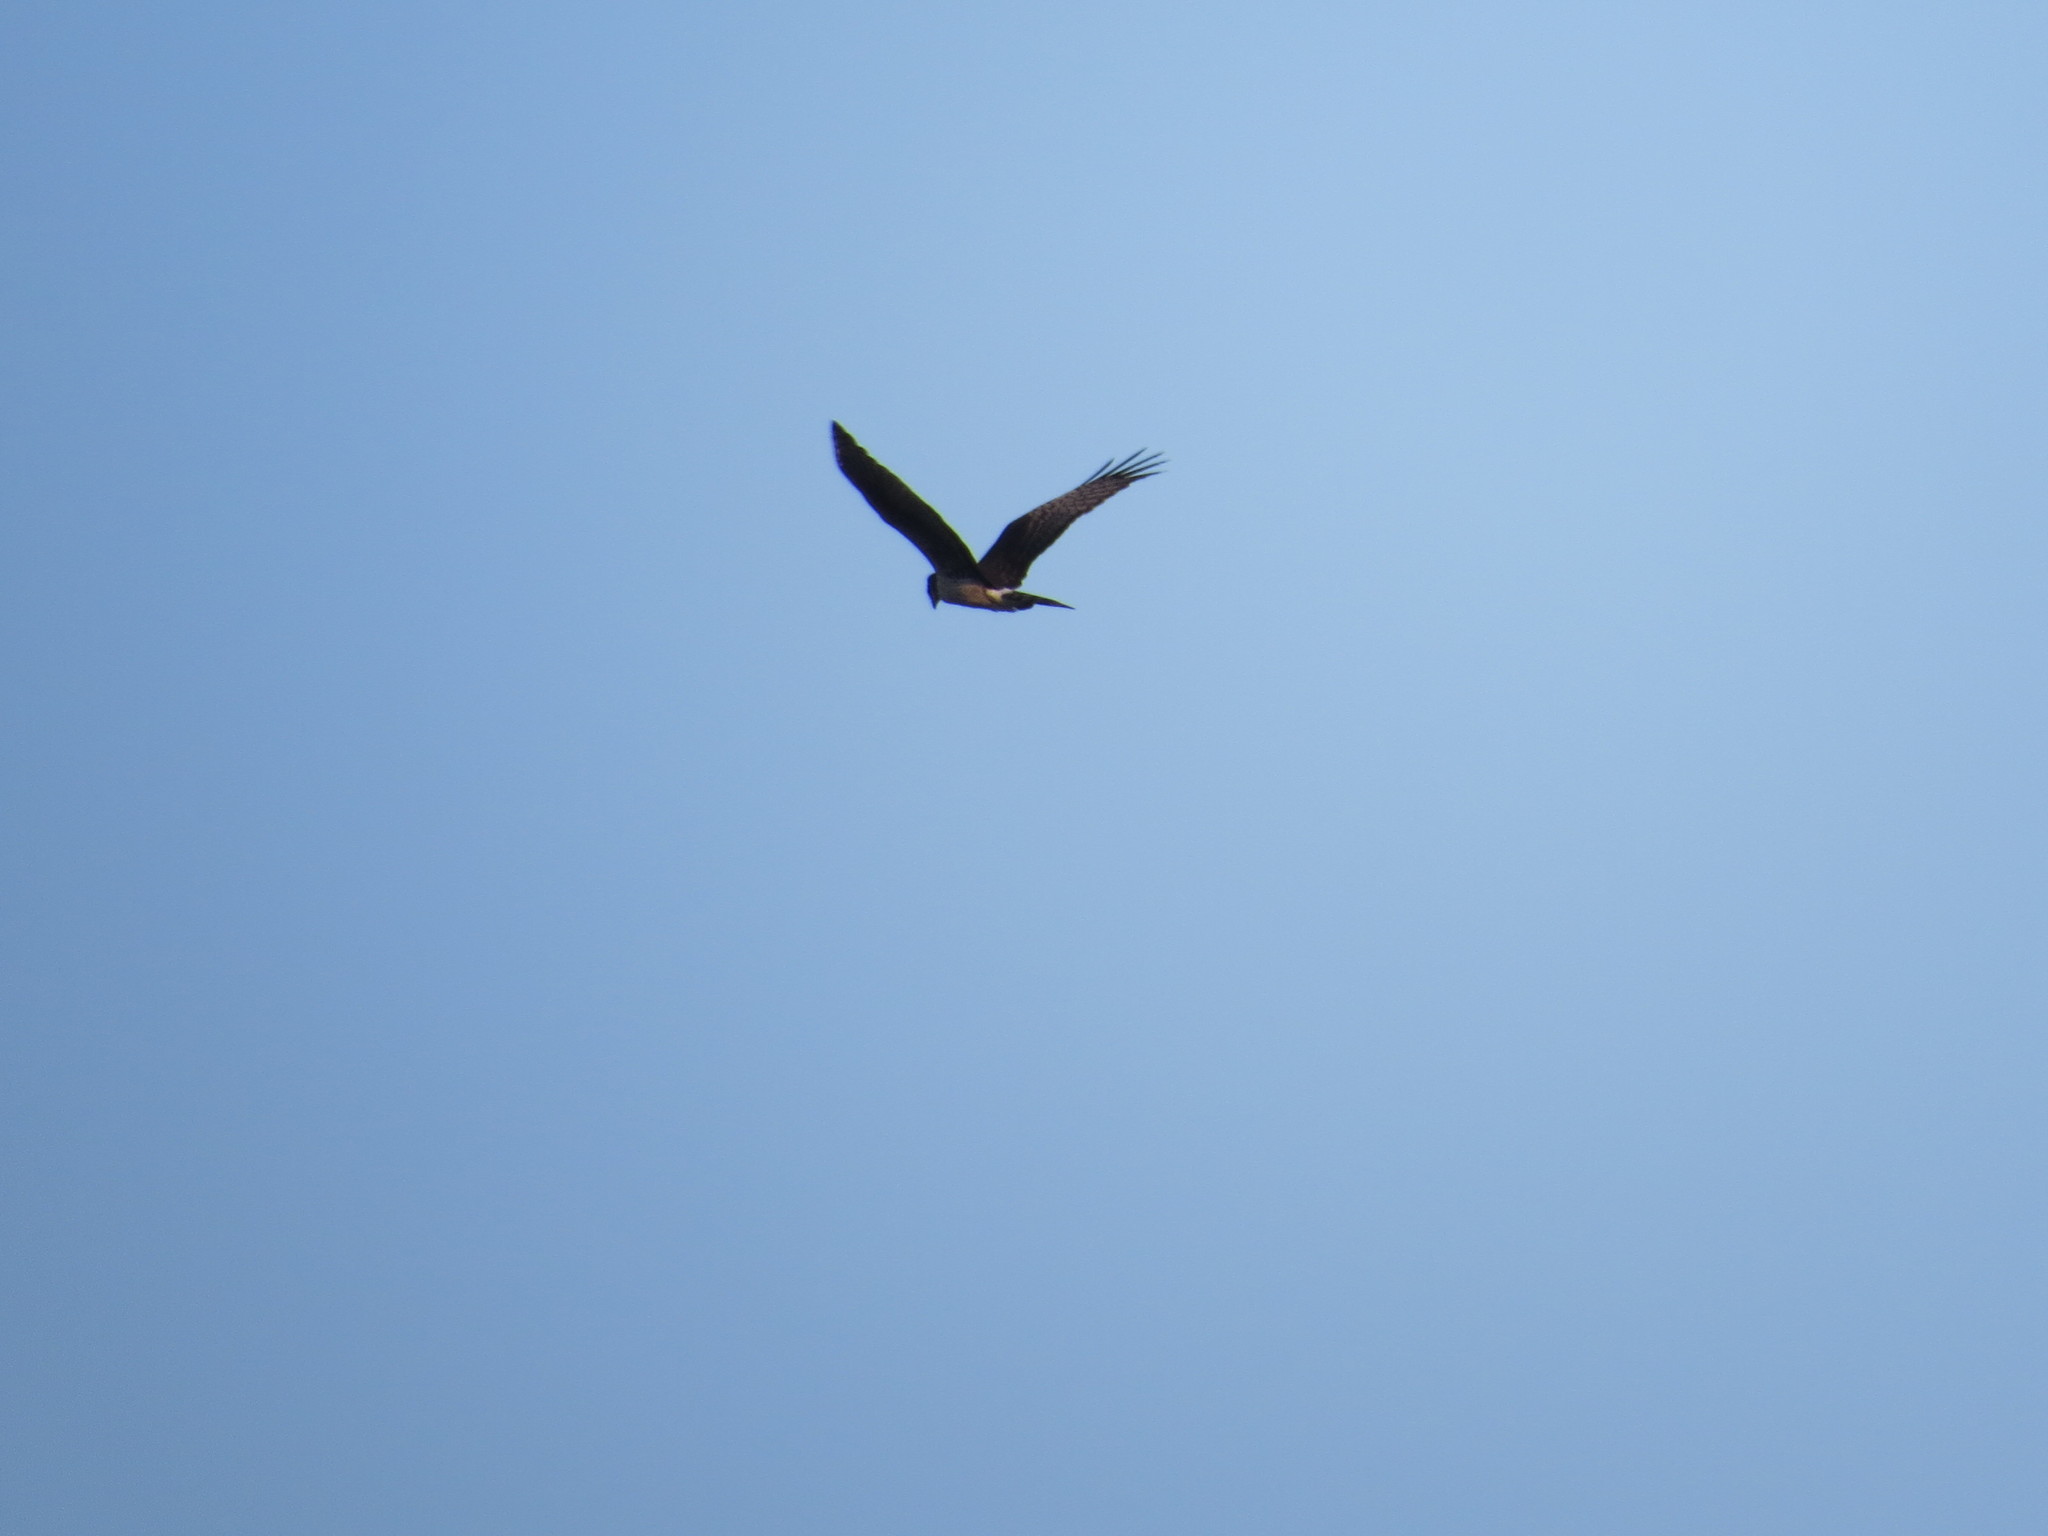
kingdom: Animalia
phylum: Chordata
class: Aves
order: Accipitriformes
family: Accipitridae
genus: Circus
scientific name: Circus buffoni
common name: Long-winged harrier
